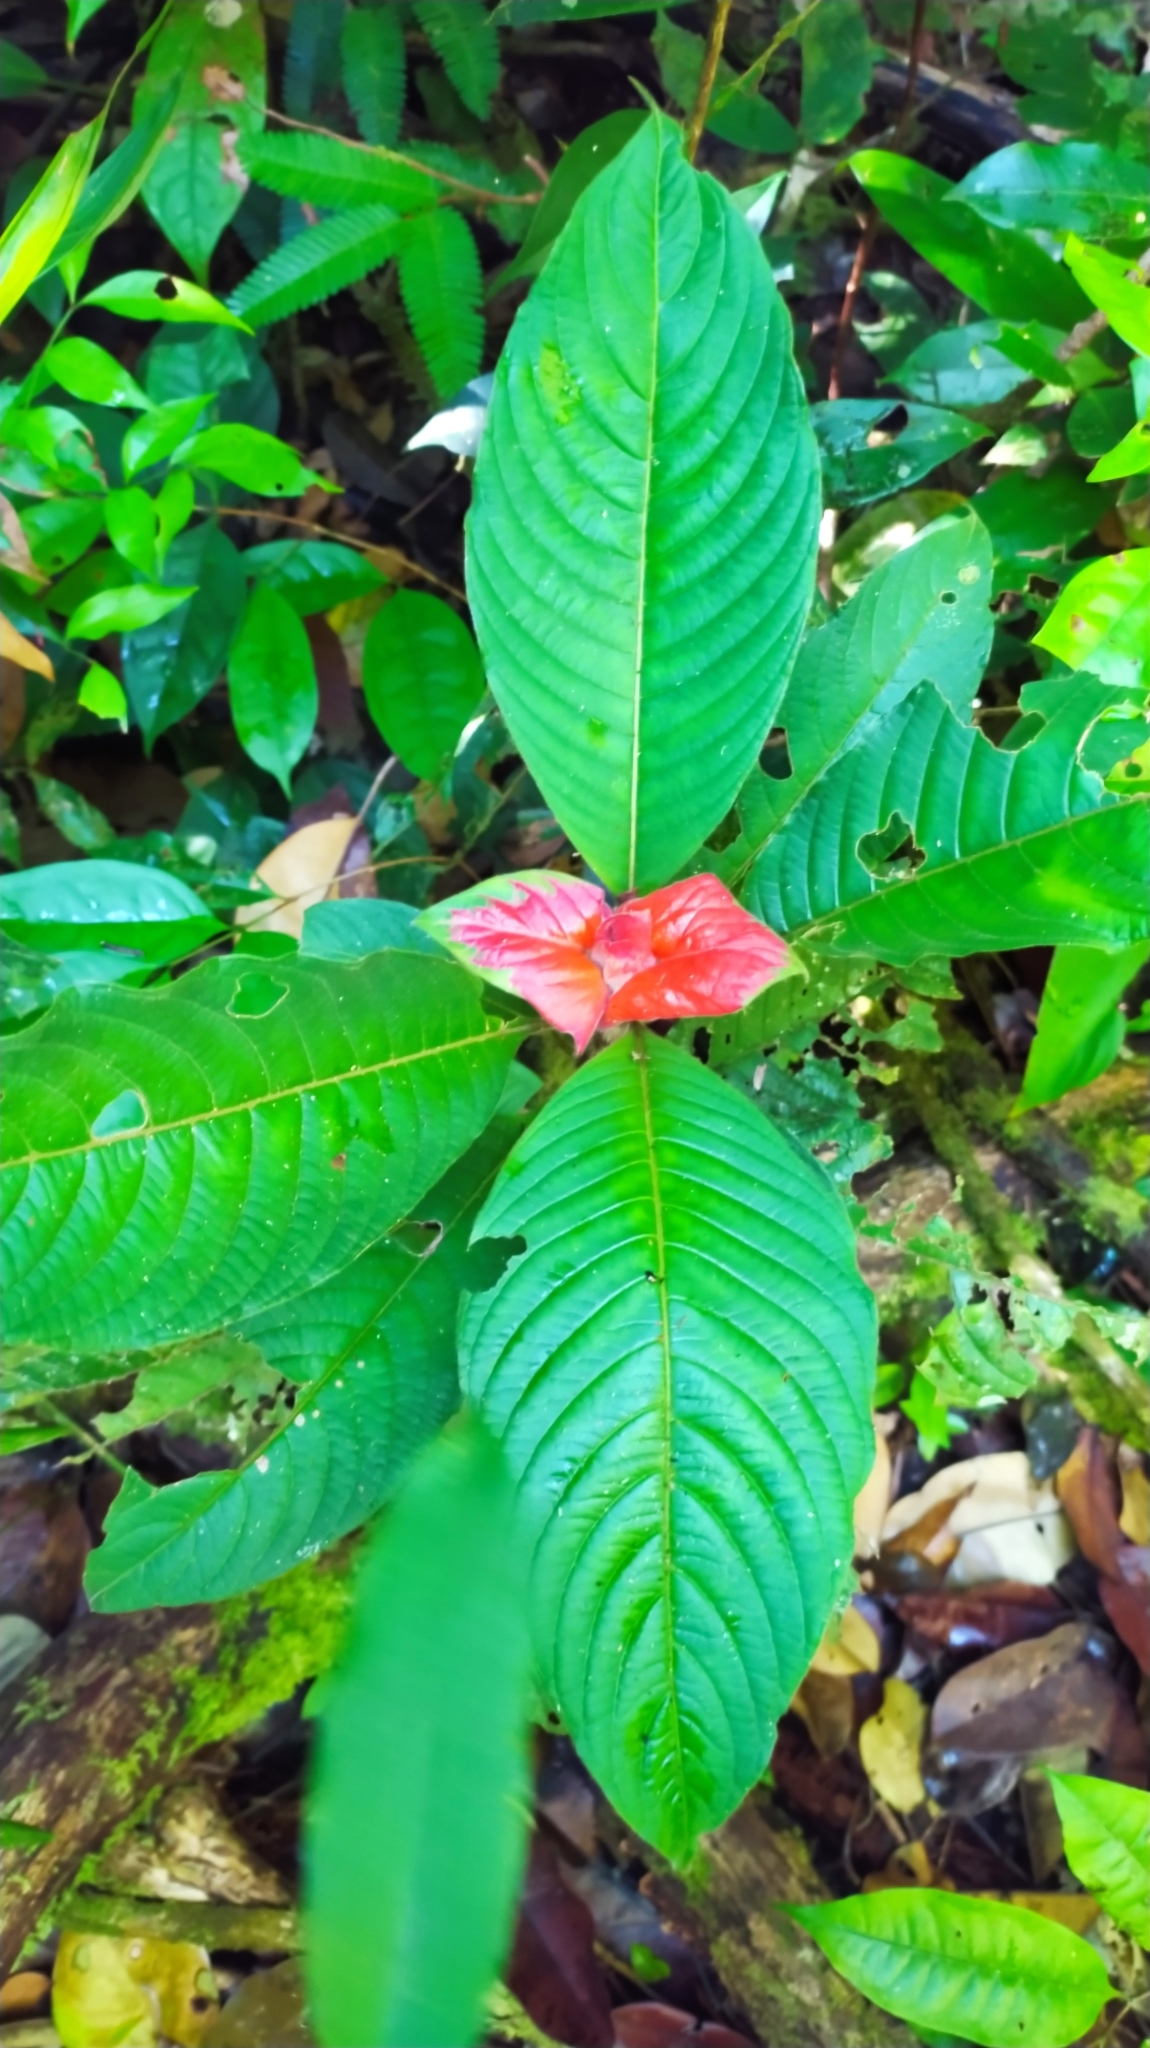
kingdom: Plantae
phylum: Tracheophyta
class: Magnoliopsida
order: Gentianales
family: Rubiaceae
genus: Palicourea
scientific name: Palicourea tomentosa
